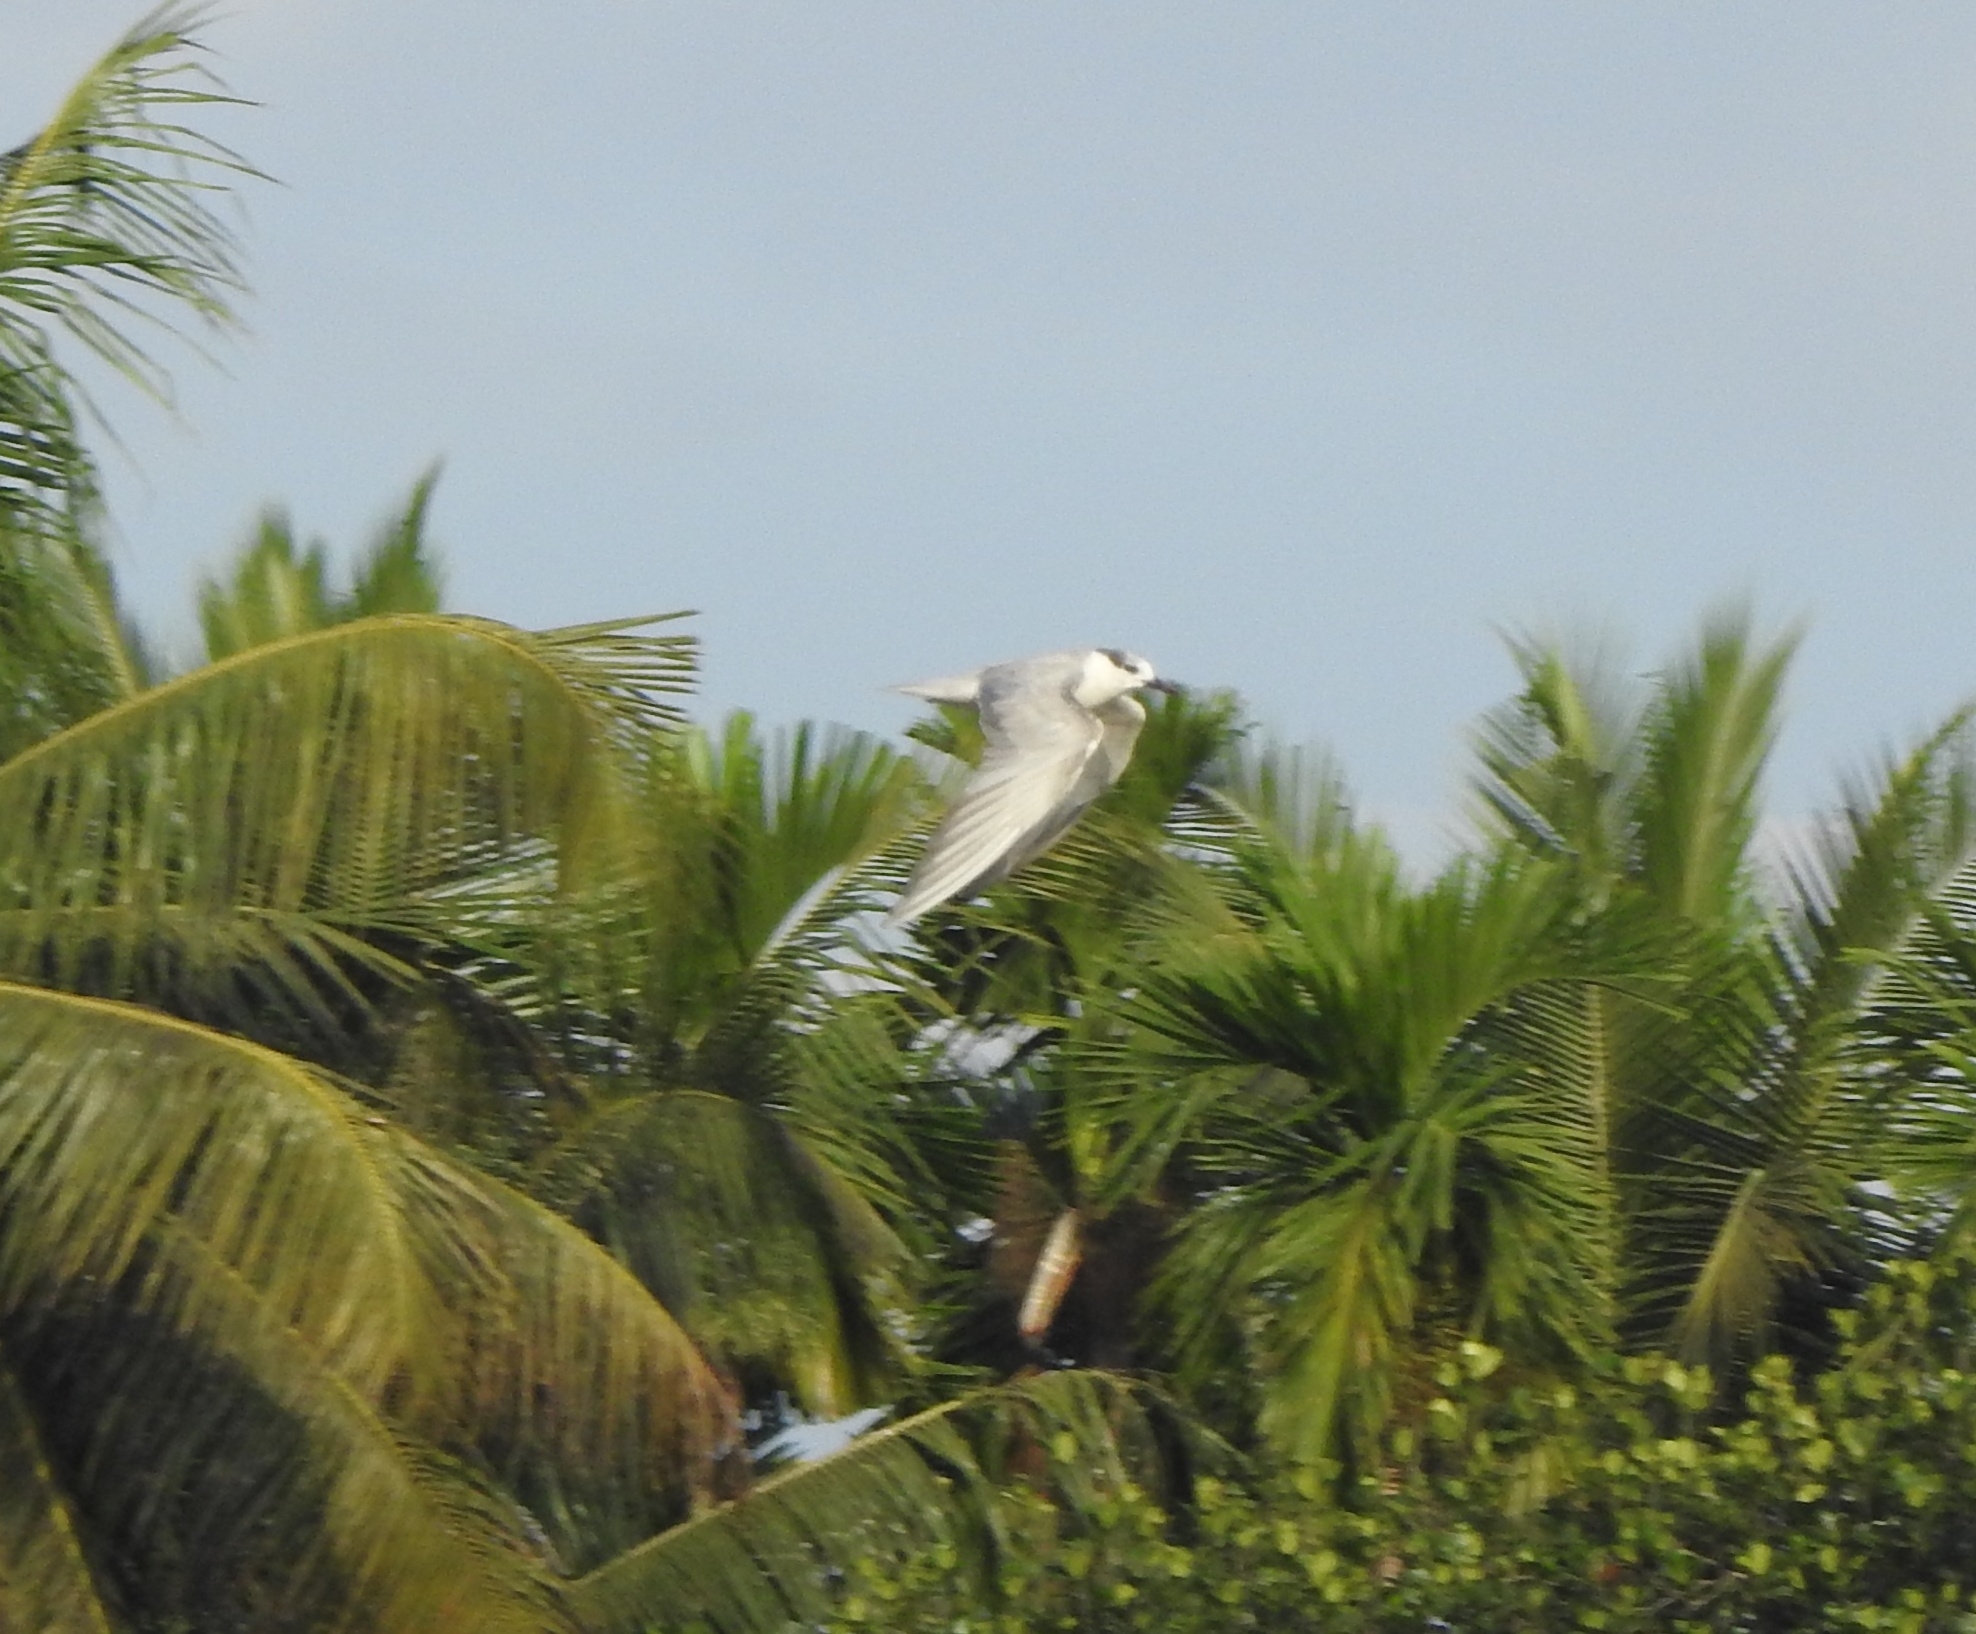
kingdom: Animalia
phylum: Chordata
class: Aves
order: Charadriiformes
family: Laridae
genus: Chlidonias
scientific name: Chlidonias hybrida
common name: Whiskered tern
